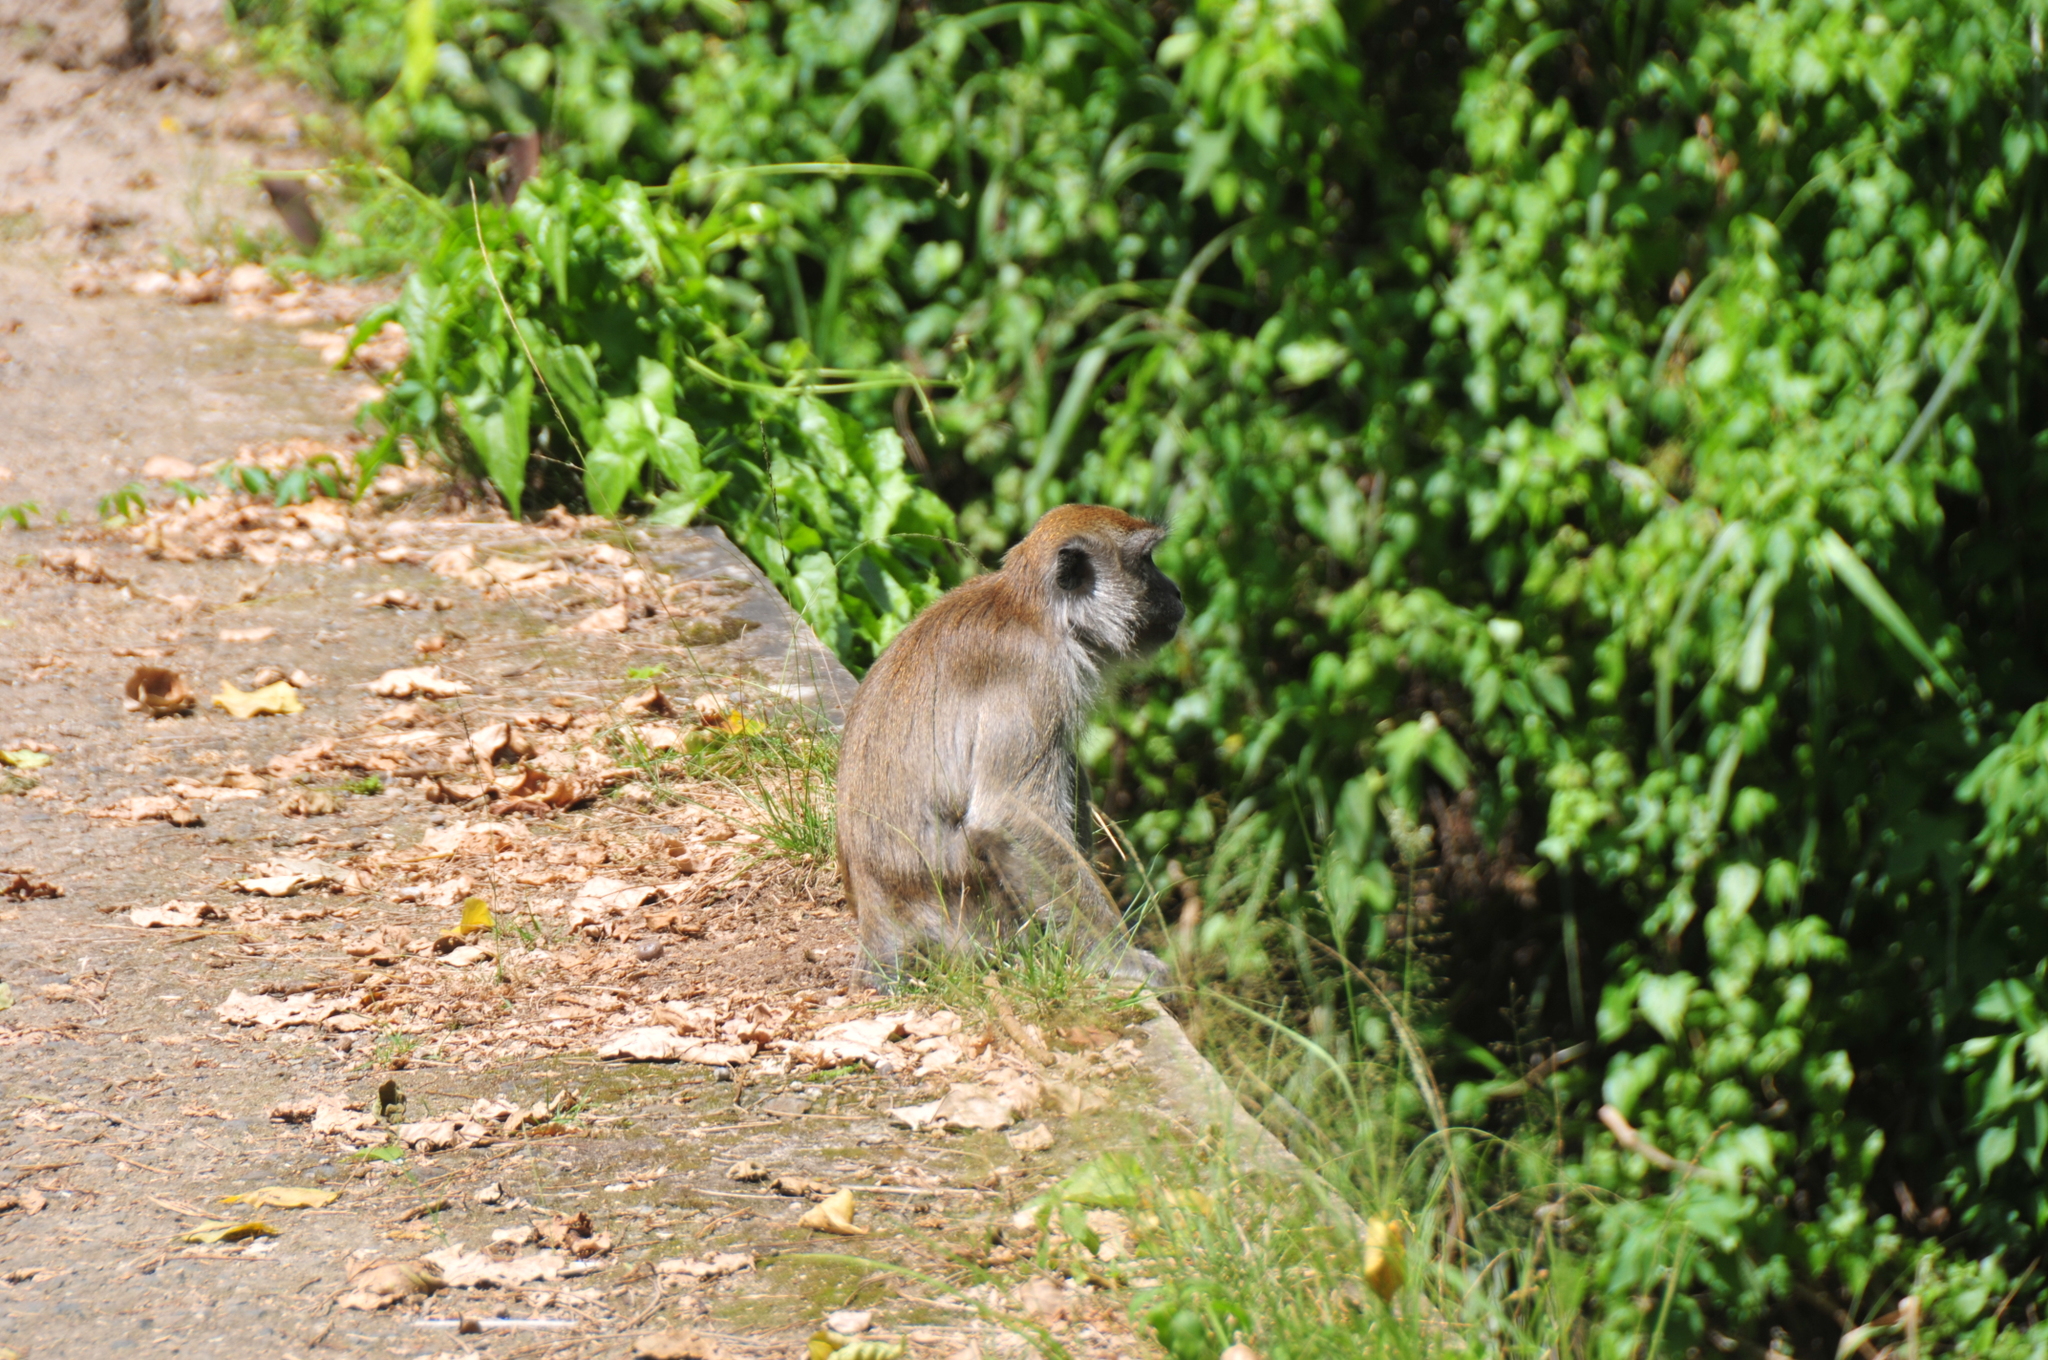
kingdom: Animalia
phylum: Chordata
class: Mammalia
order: Primates
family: Cercopithecidae
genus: Macaca
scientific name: Macaca fascicularis
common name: Crab-eating macaque
